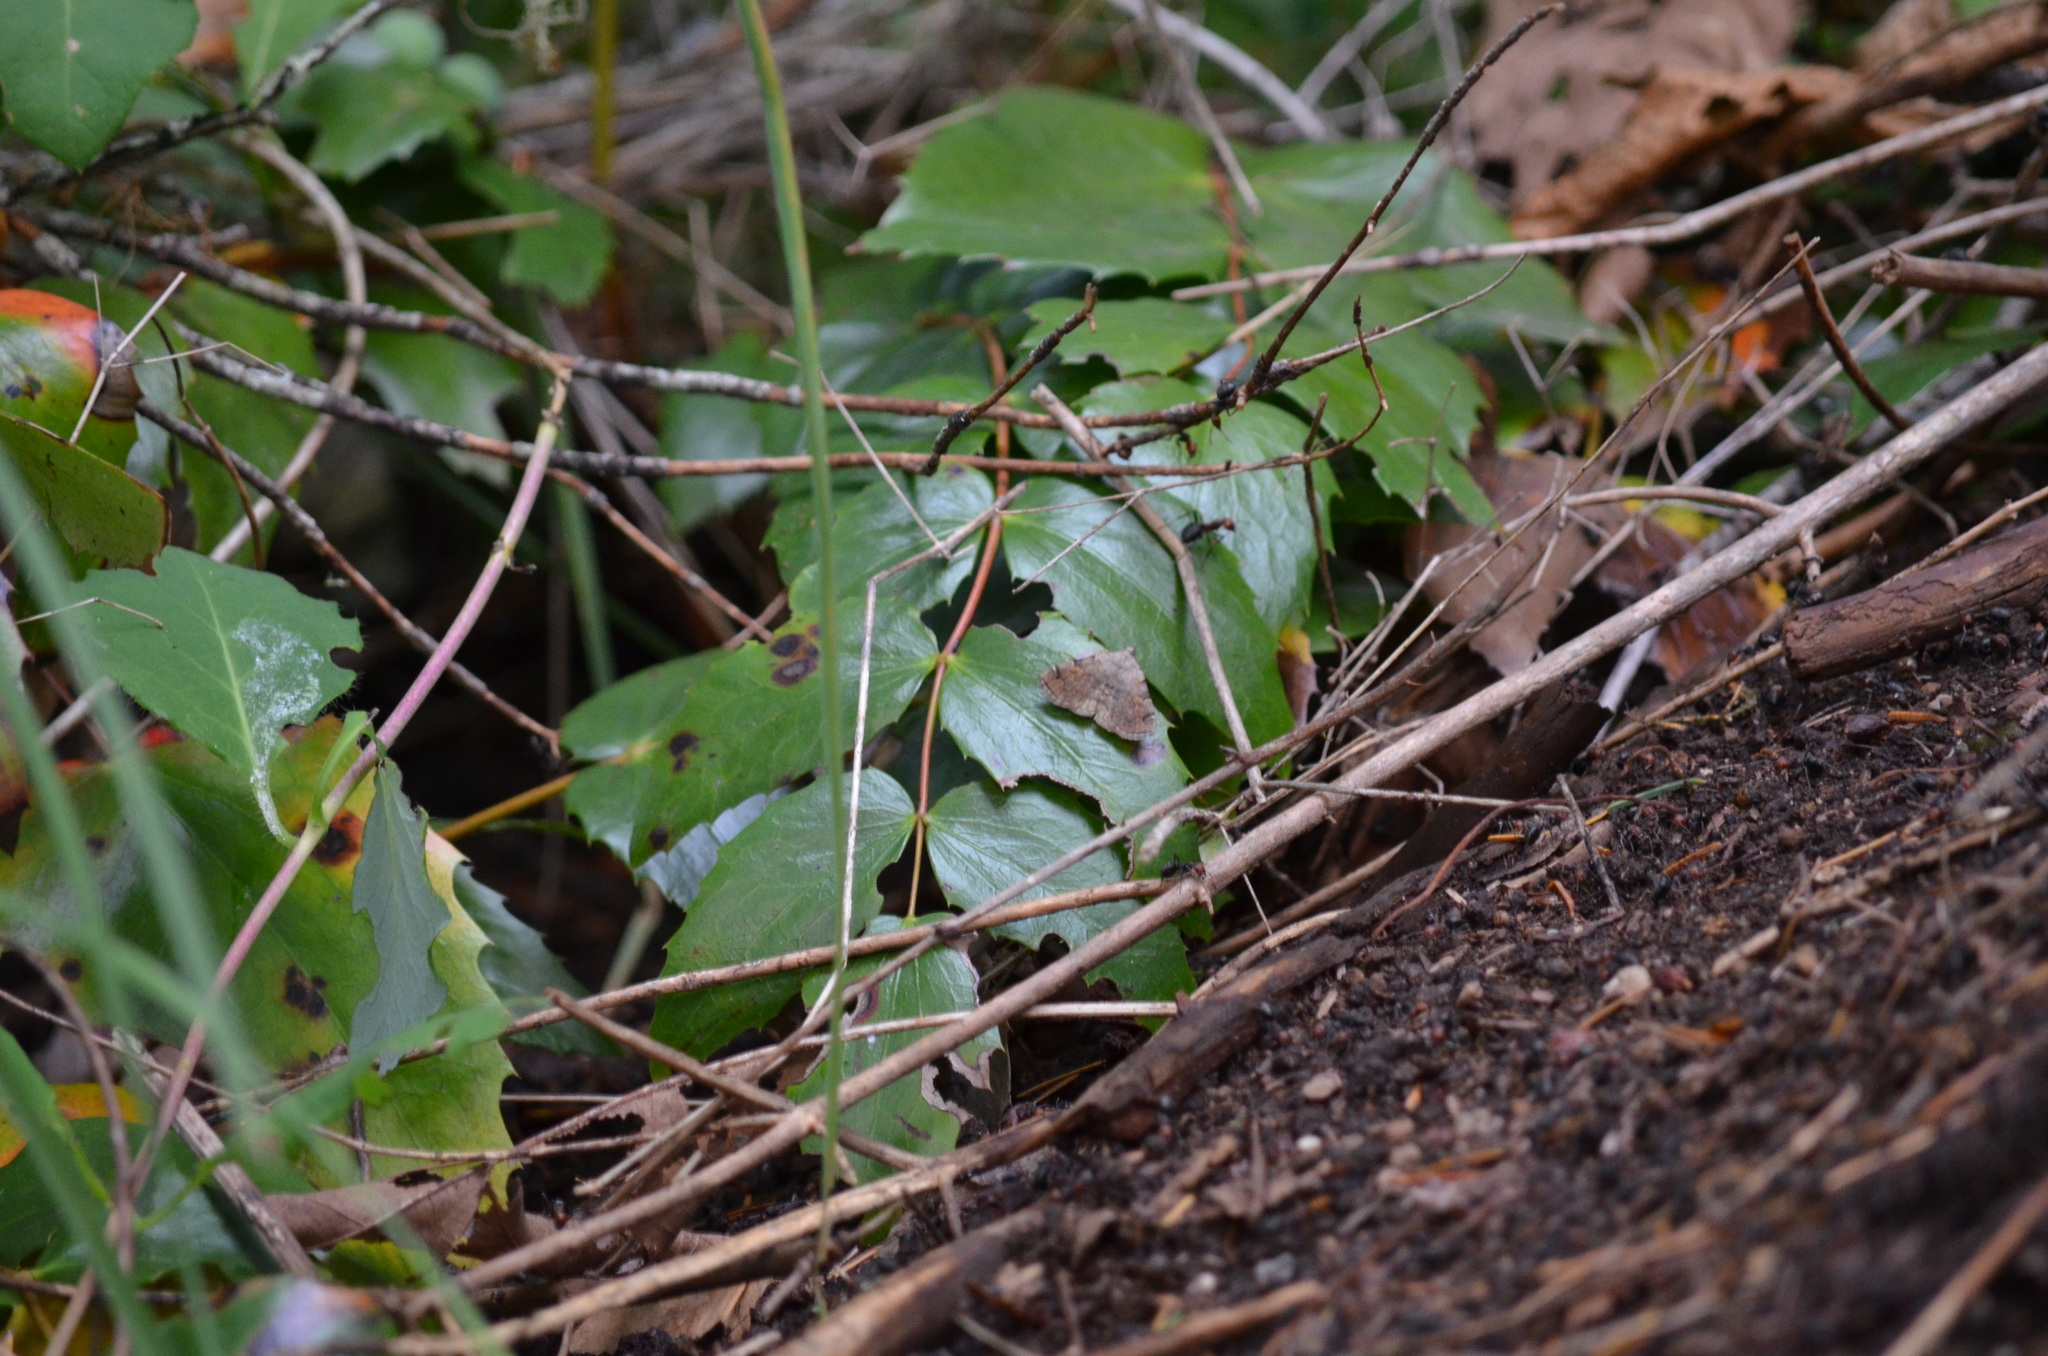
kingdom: Animalia
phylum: Arthropoda
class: Insecta
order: Lepidoptera
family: Erebidae
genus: Idia
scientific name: Idia americalis
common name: American idia moth
